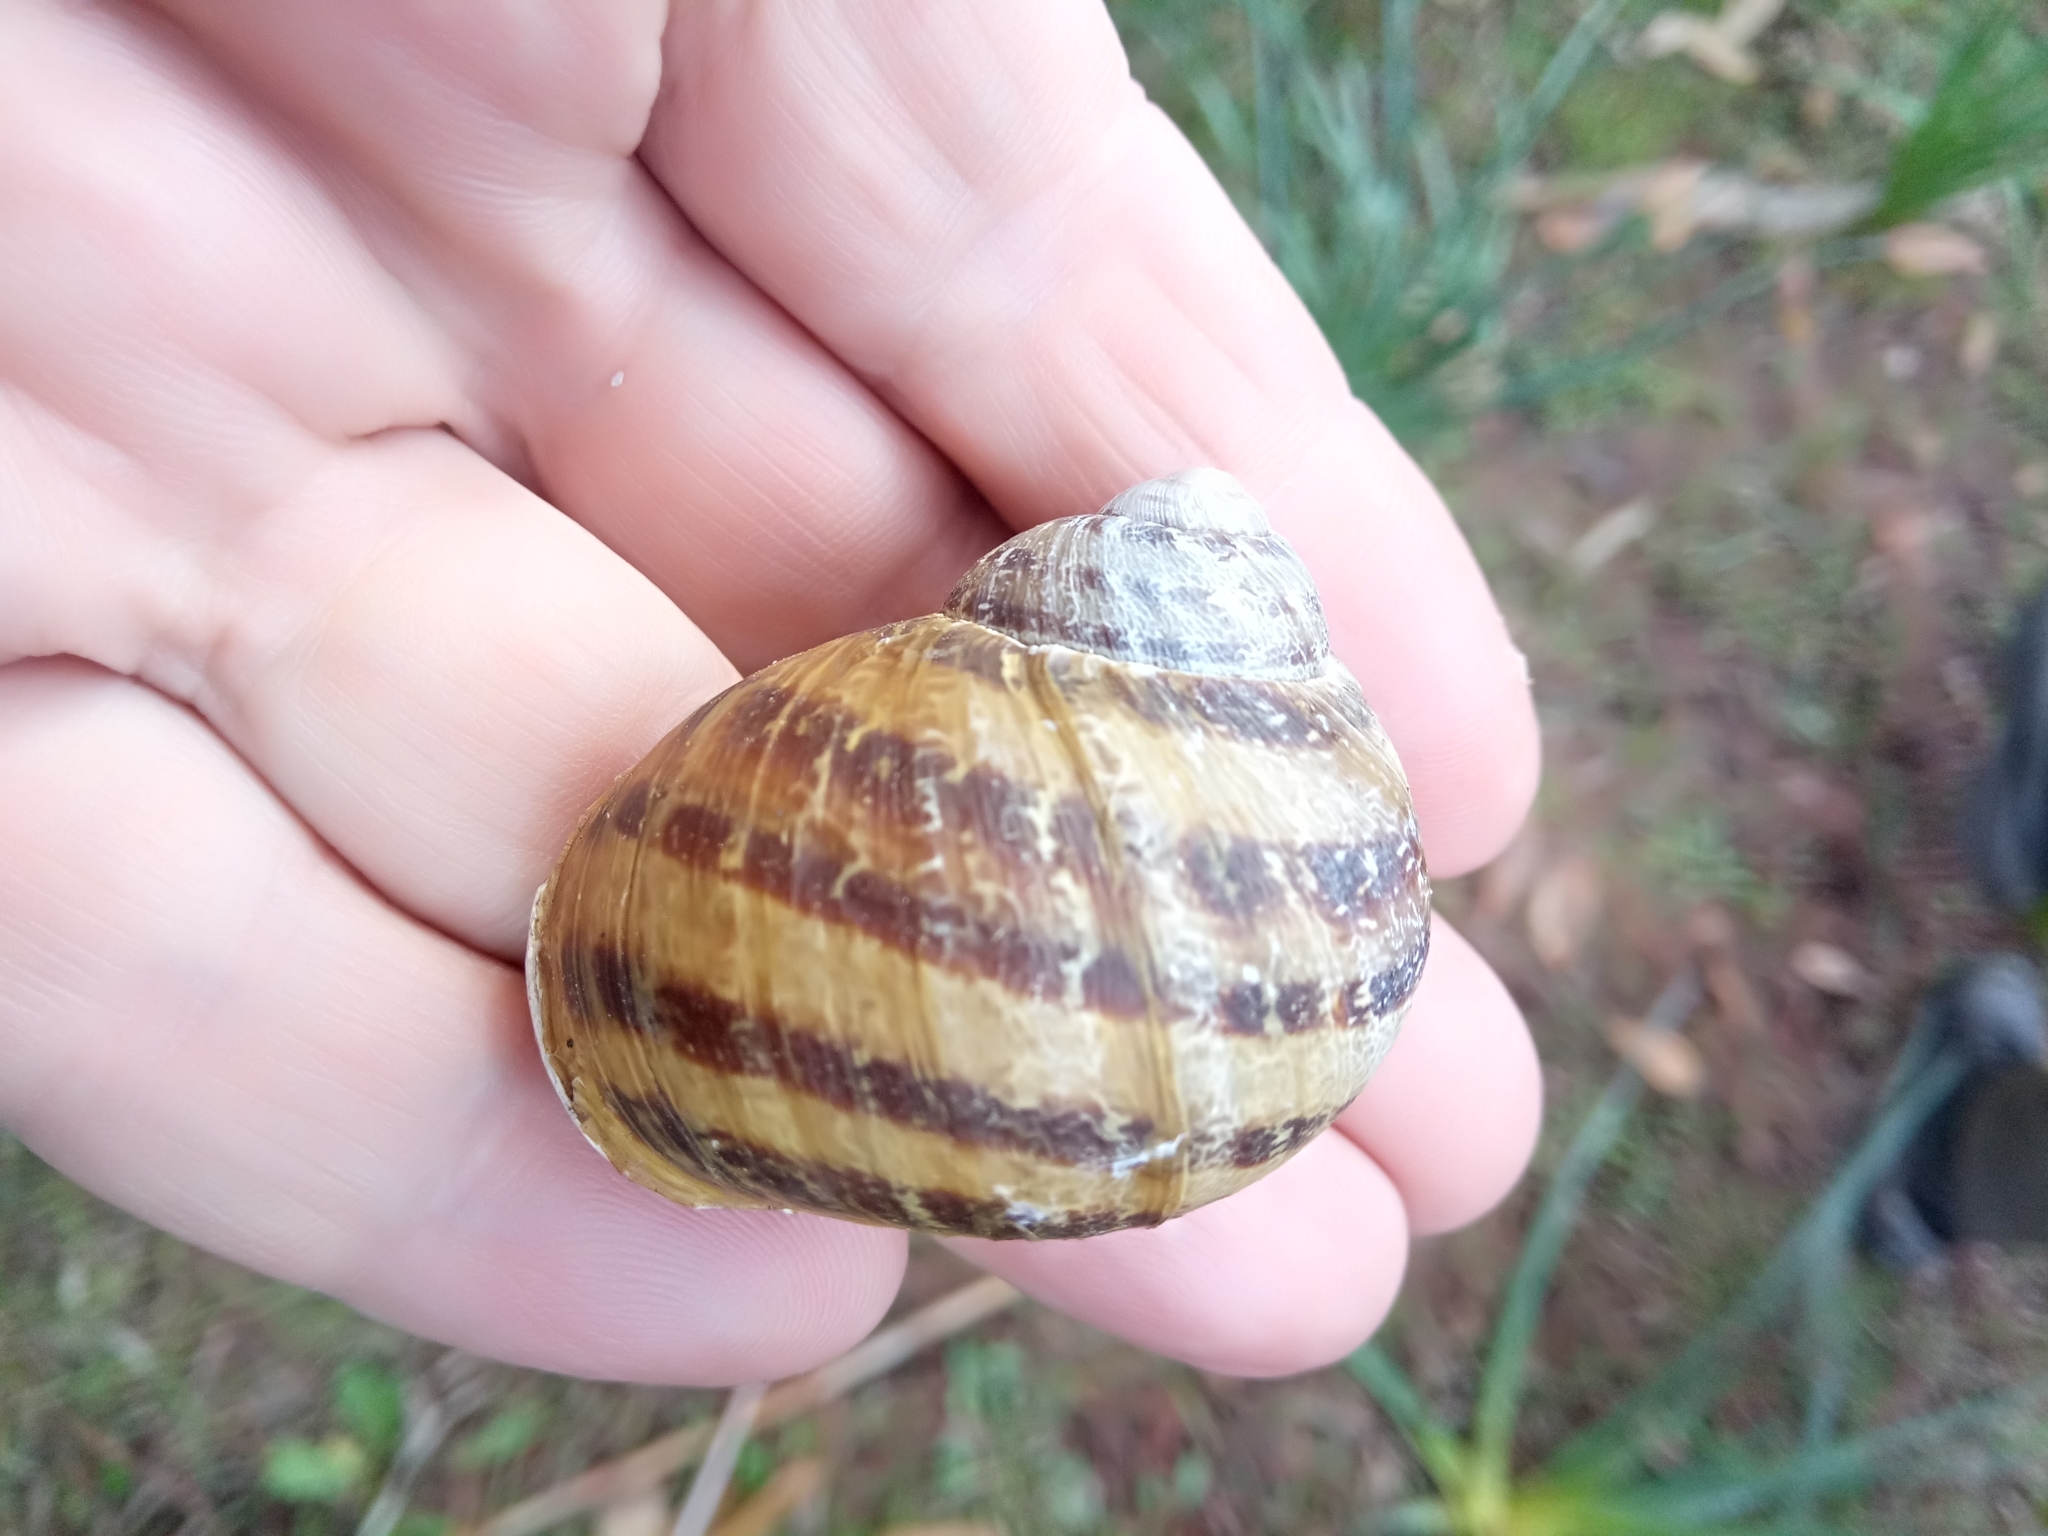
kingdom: Animalia
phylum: Mollusca
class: Gastropoda
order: Stylommatophora
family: Helicidae
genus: Cornu
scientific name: Cornu aspersum
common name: Brown garden snail
